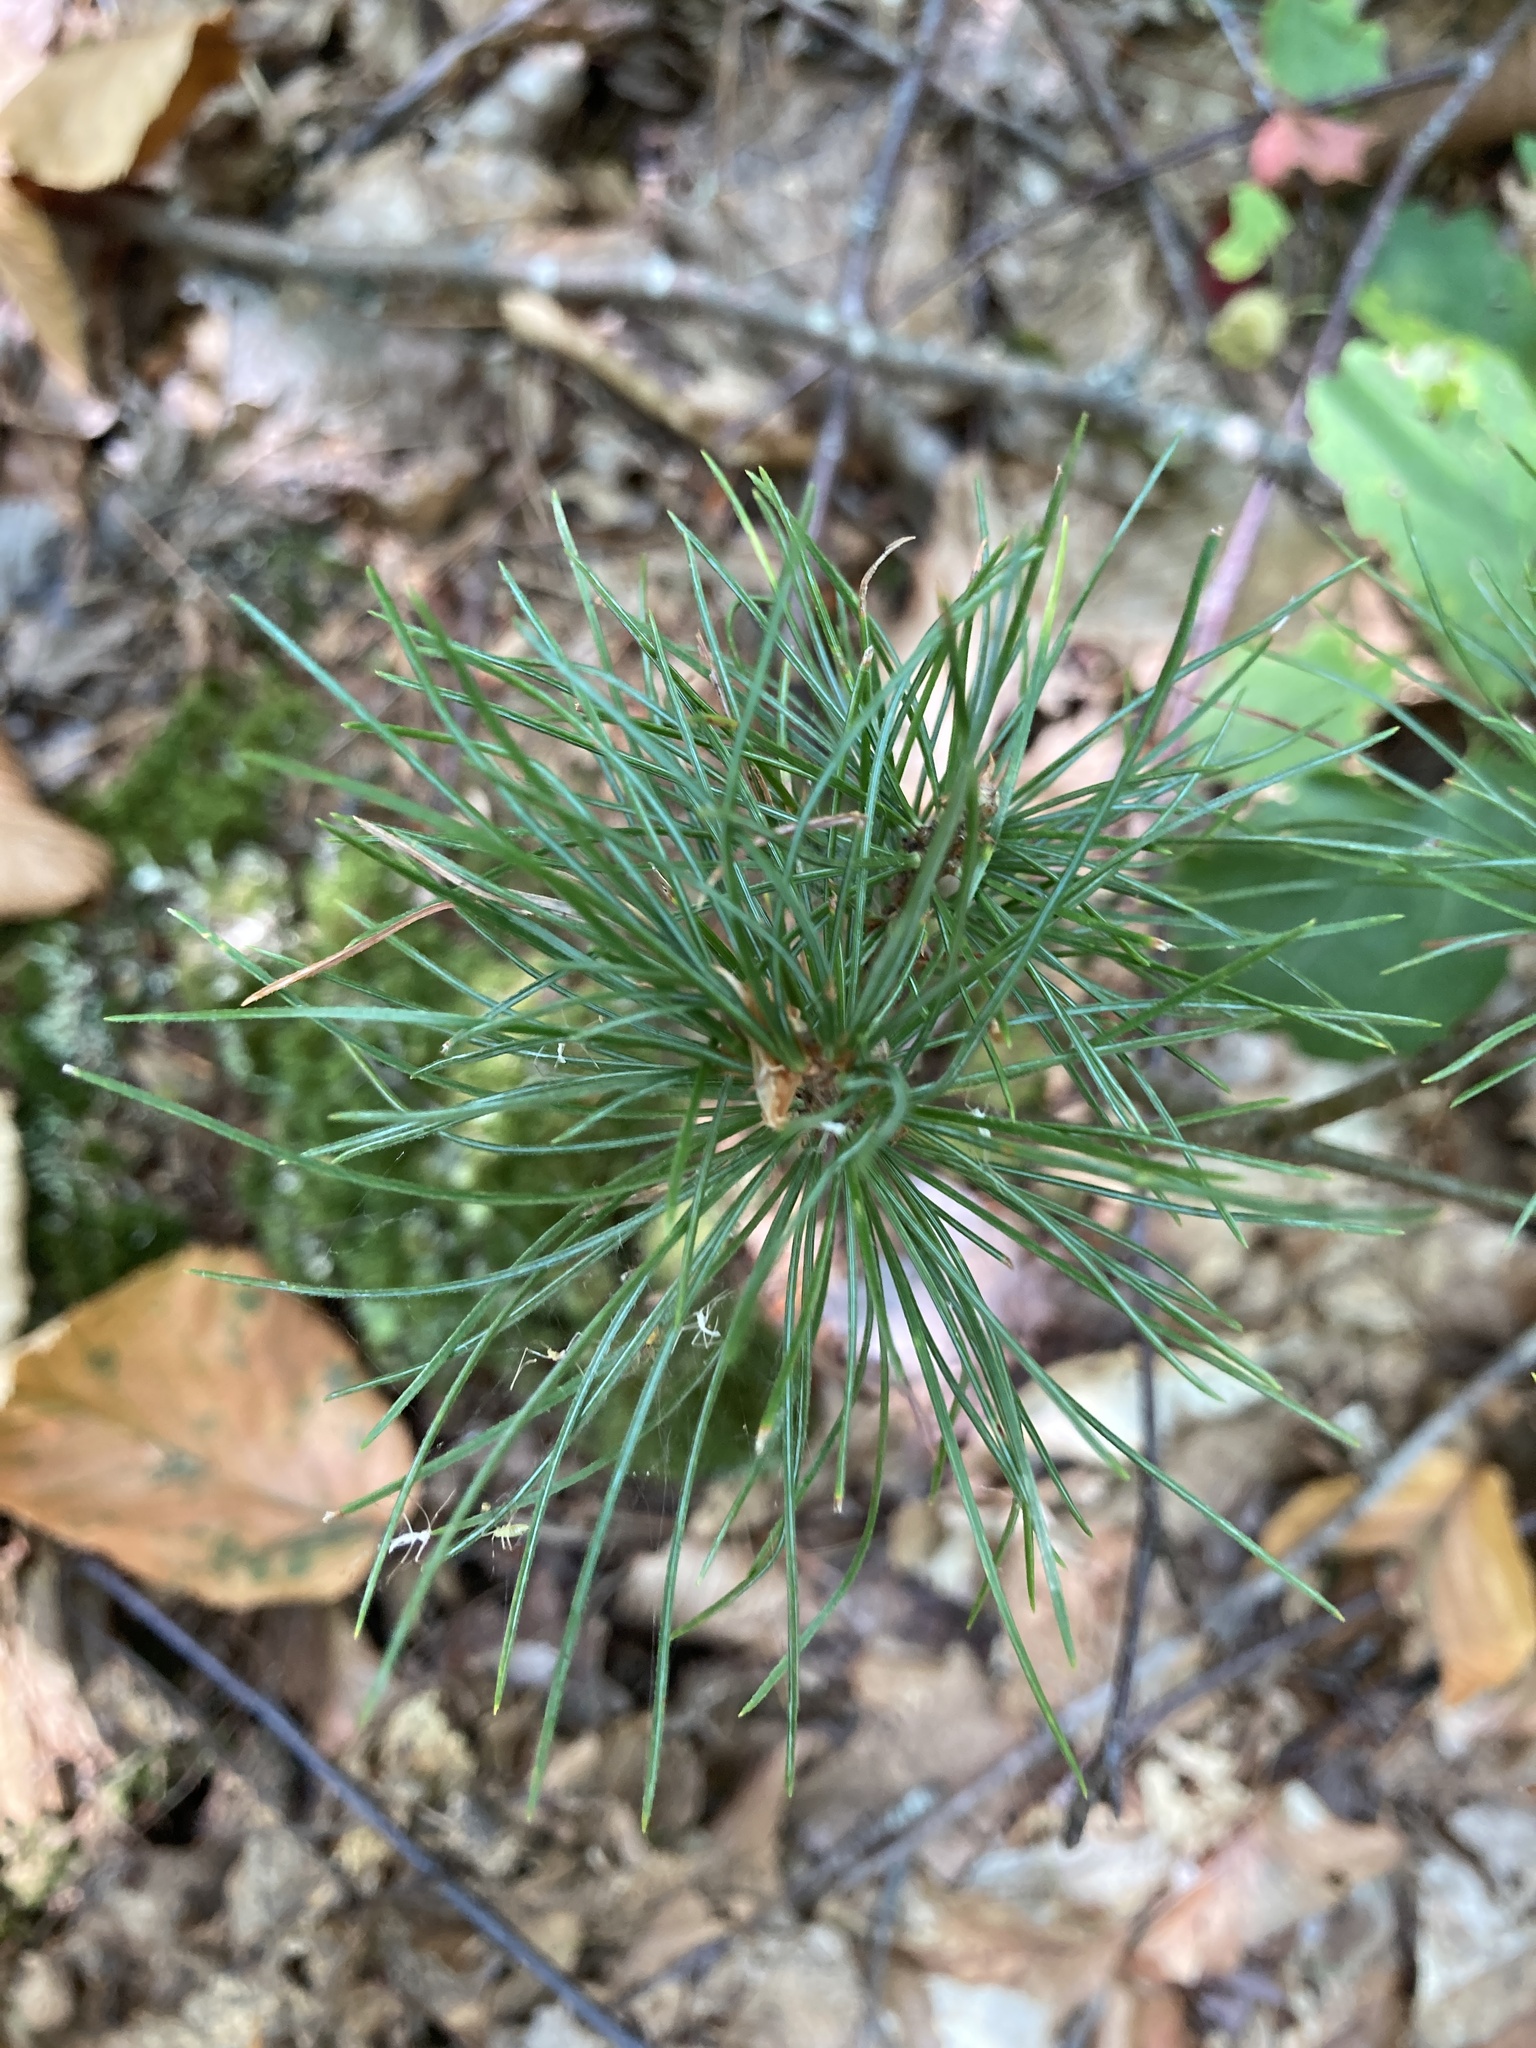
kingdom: Plantae
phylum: Tracheophyta
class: Pinopsida
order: Pinales
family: Pinaceae
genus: Pinus
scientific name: Pinus strobus
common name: Weymouth pine
